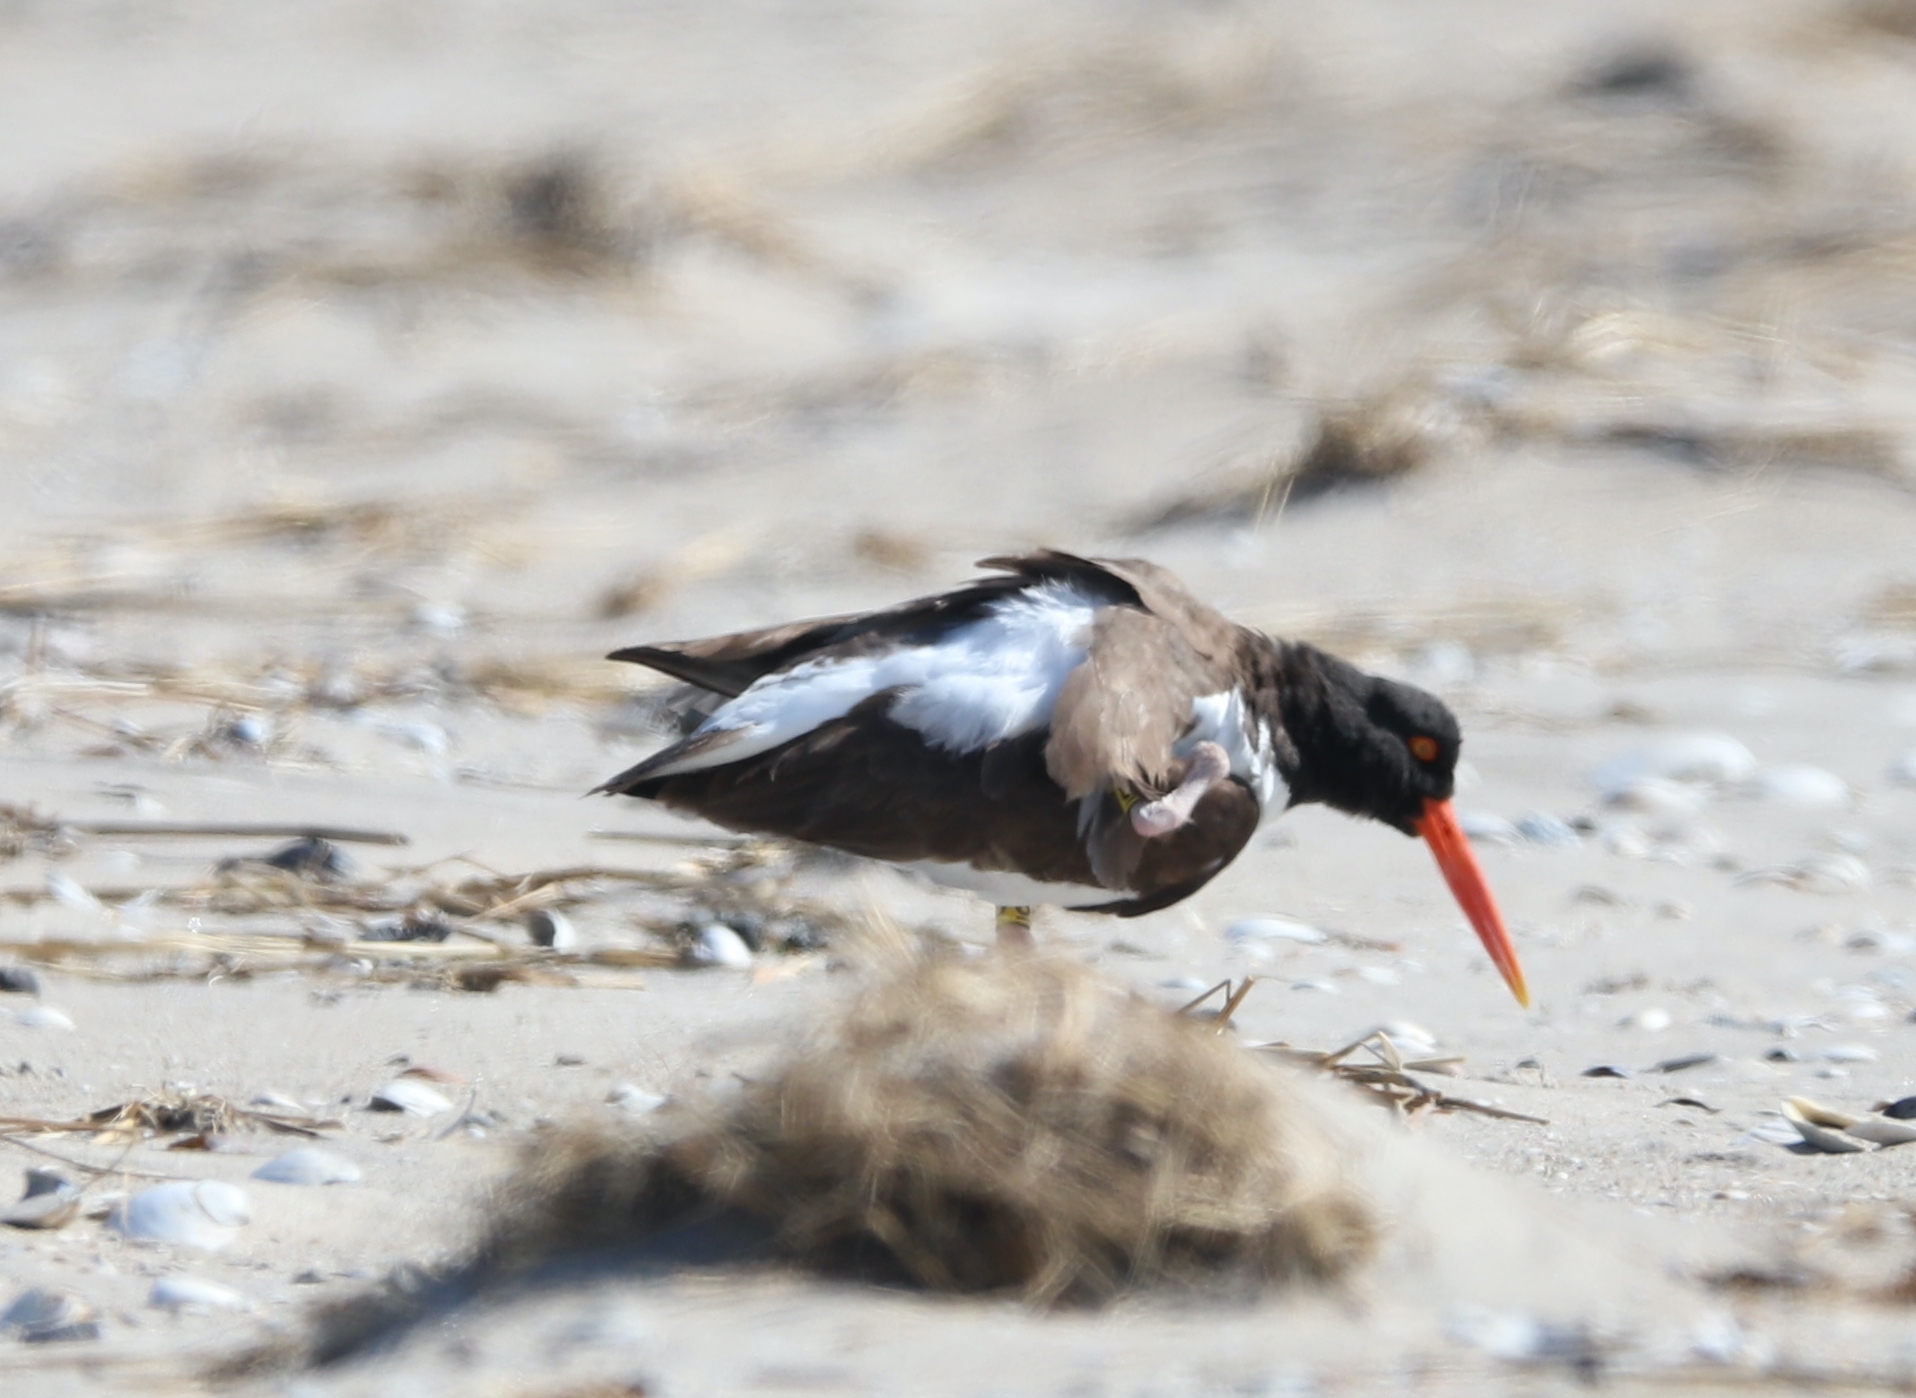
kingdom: Animalia
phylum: Chordata
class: Aves
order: Charadriiformes
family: Haematopodidae
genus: Haematopus
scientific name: Haematopus palliatus
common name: American oystercatcher
